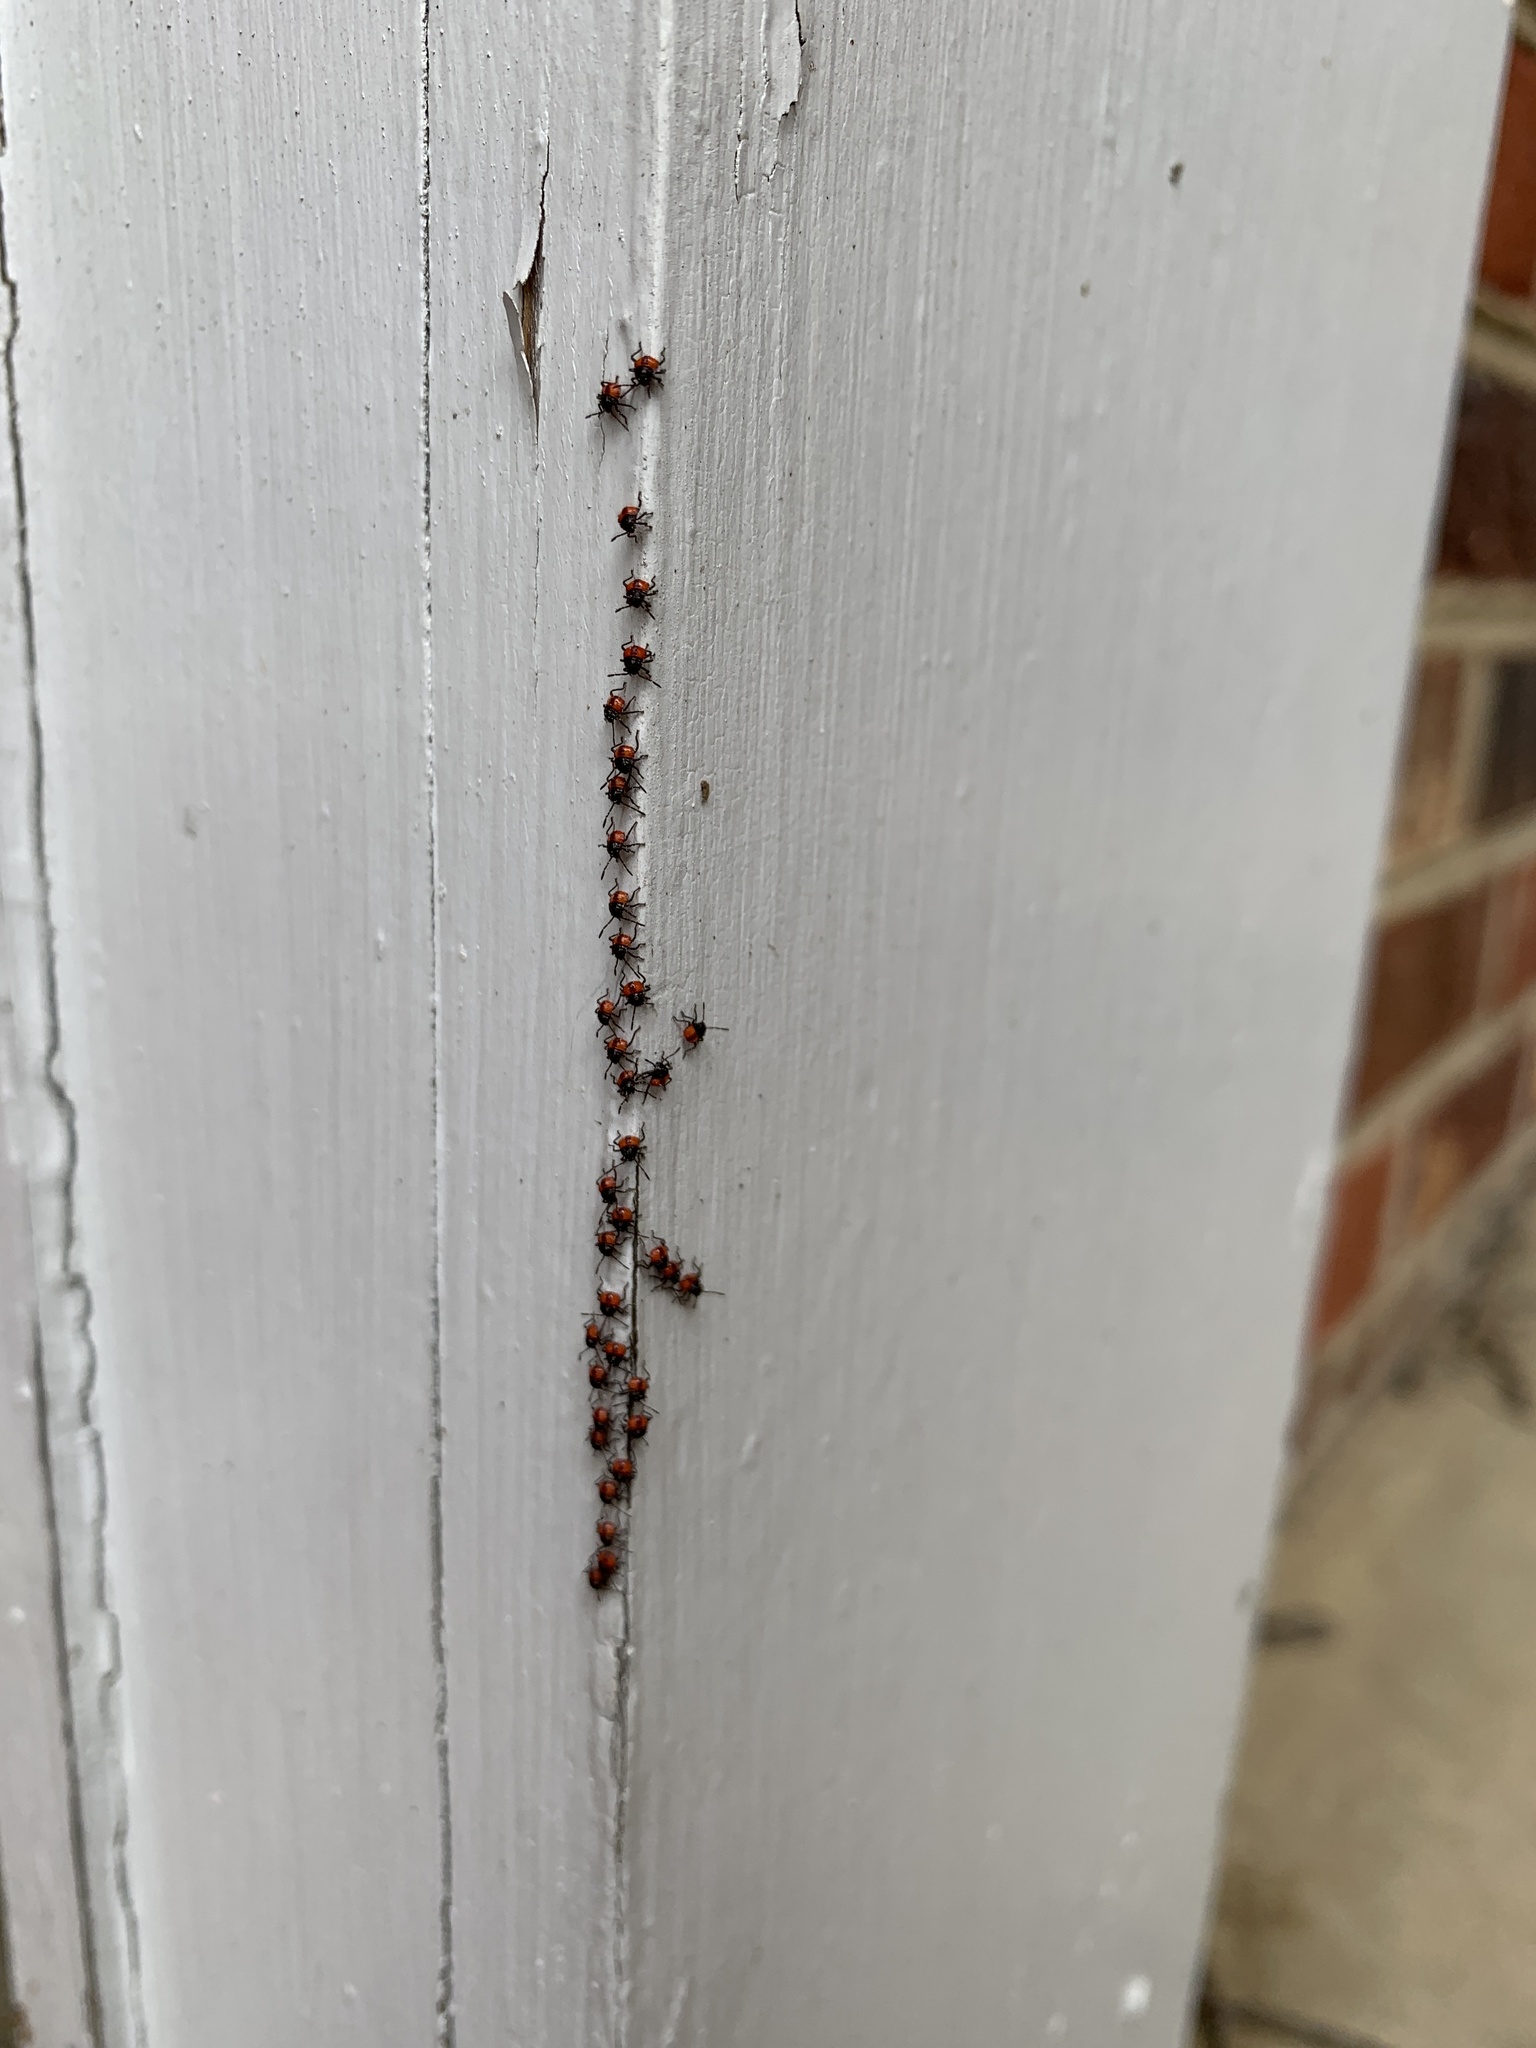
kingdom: Animalia
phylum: Arthropoda
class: Insecta
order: Hemiptera
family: Pentatomidae
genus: Euthyrhynchus
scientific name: Euthyrhynchus floridanus
